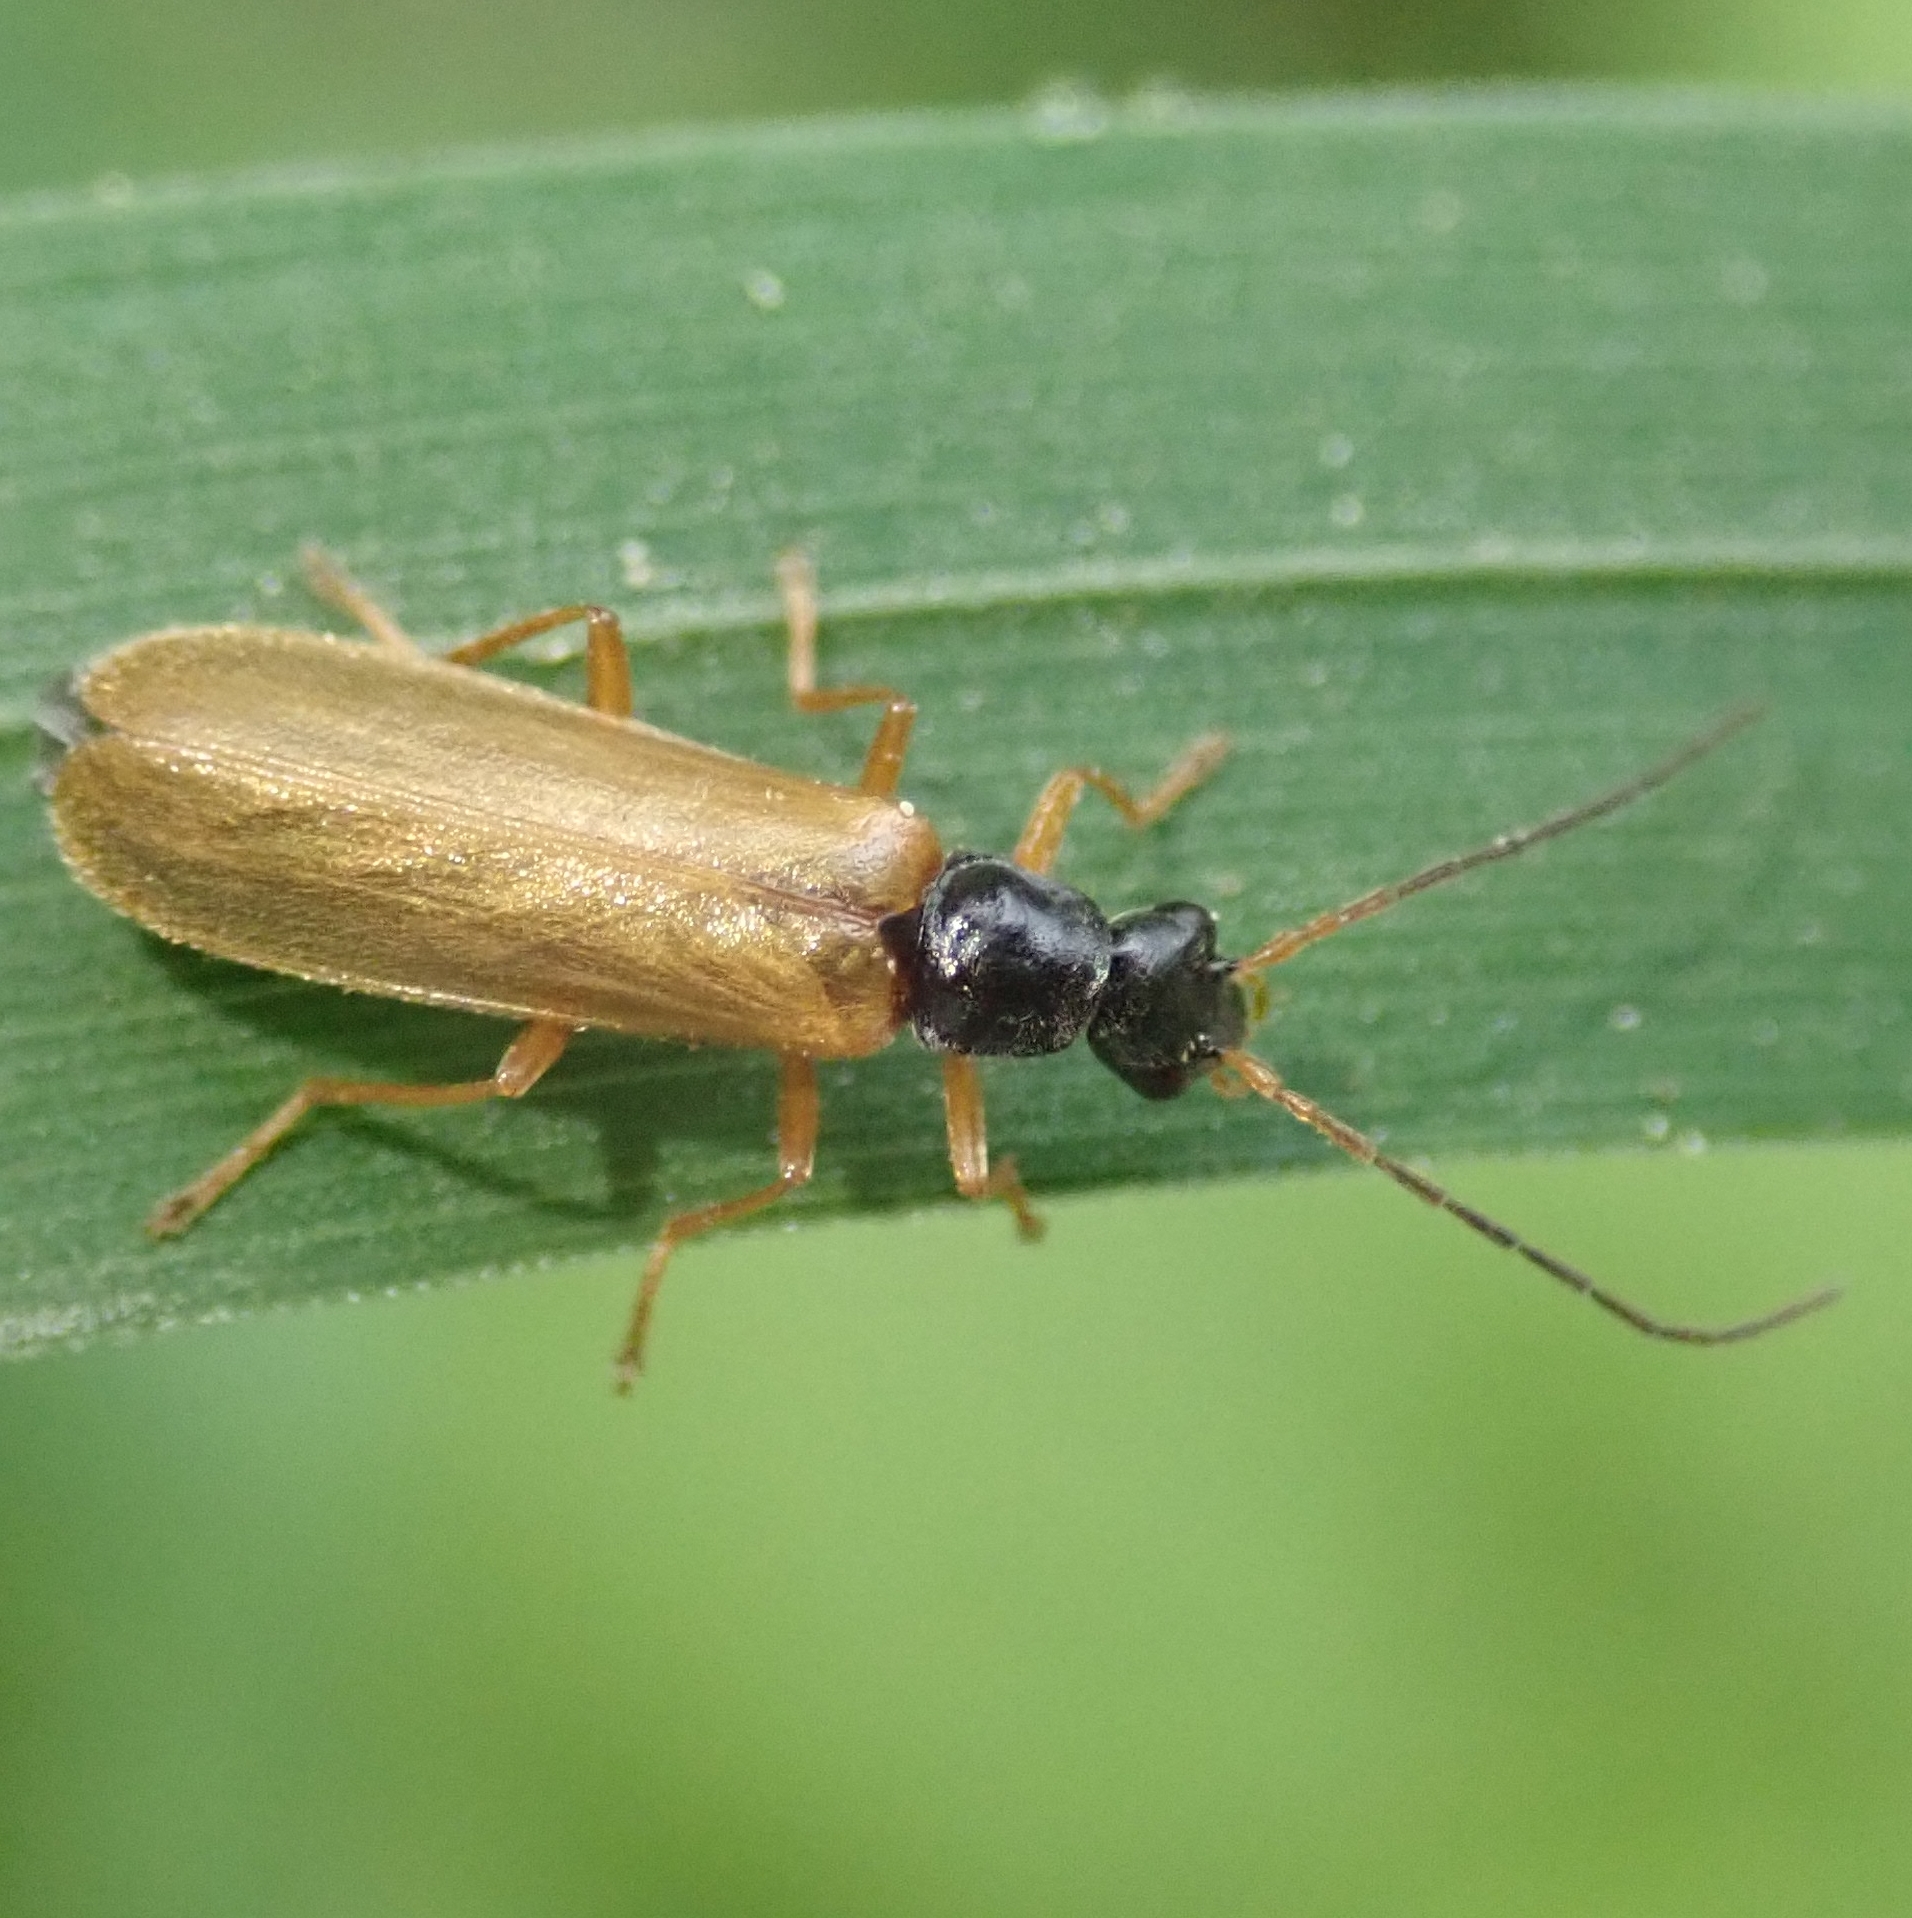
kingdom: Animalia
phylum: Arthropoda
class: Insecta
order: Coleoptera
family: Cantharidae
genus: Rhagonycha
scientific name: Rhagonycha lignosa
